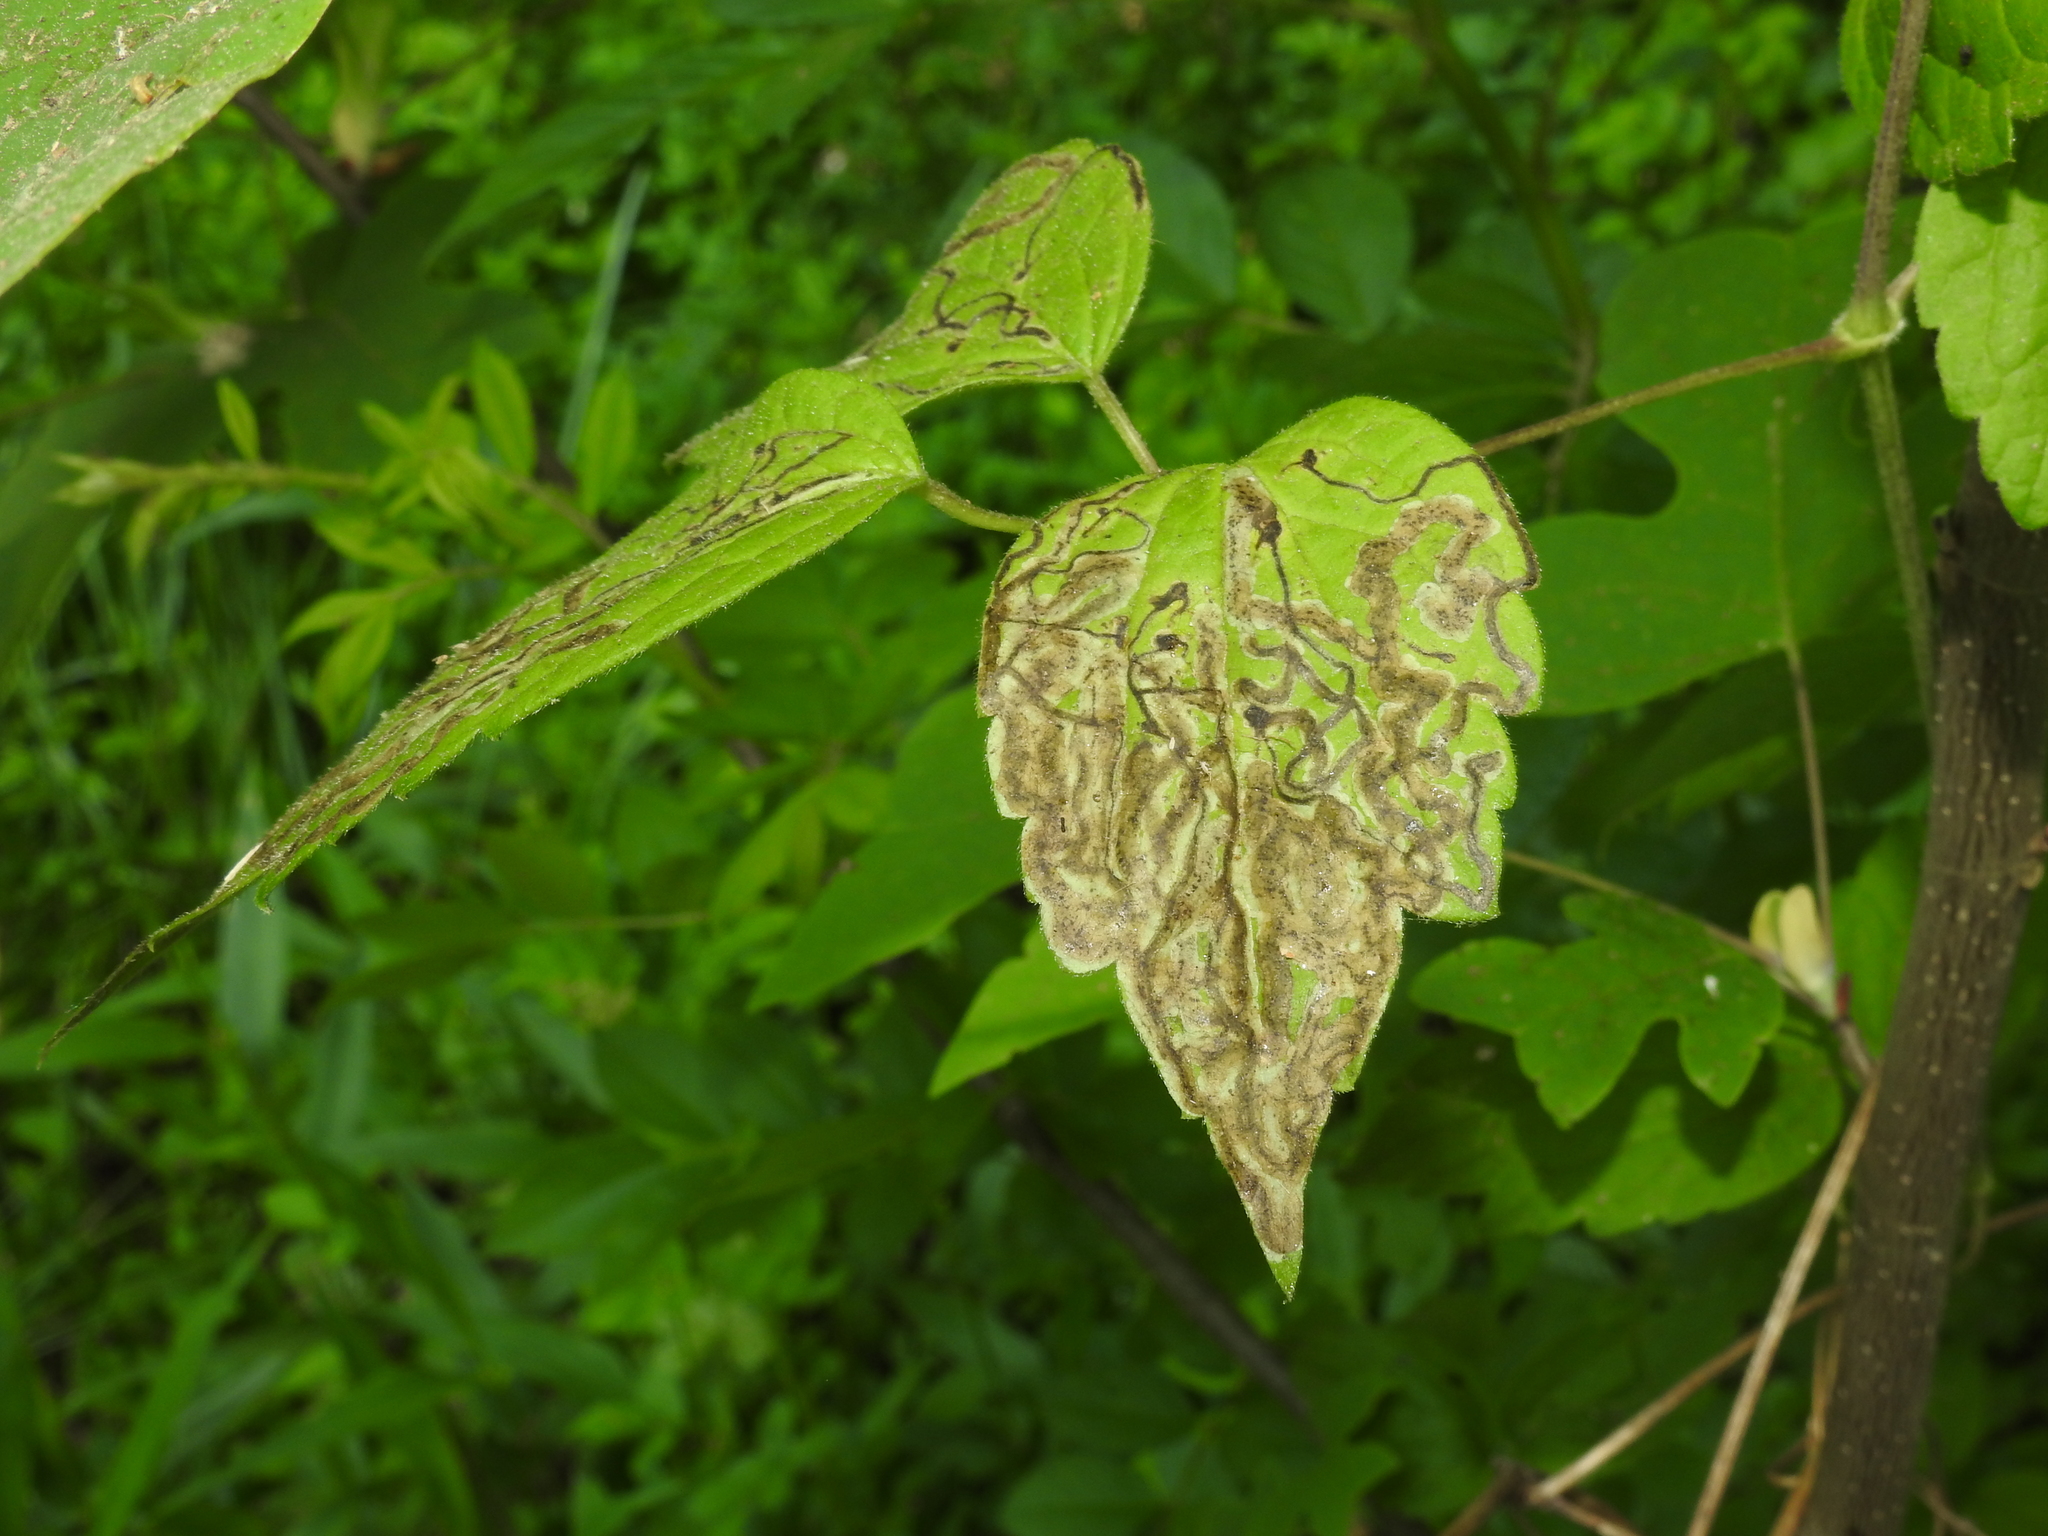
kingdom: Animalia
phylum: Arthropoda
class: Insecta
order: Diptera
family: Agromyzidae
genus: Phytomyza
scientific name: Phytomyza loewii
